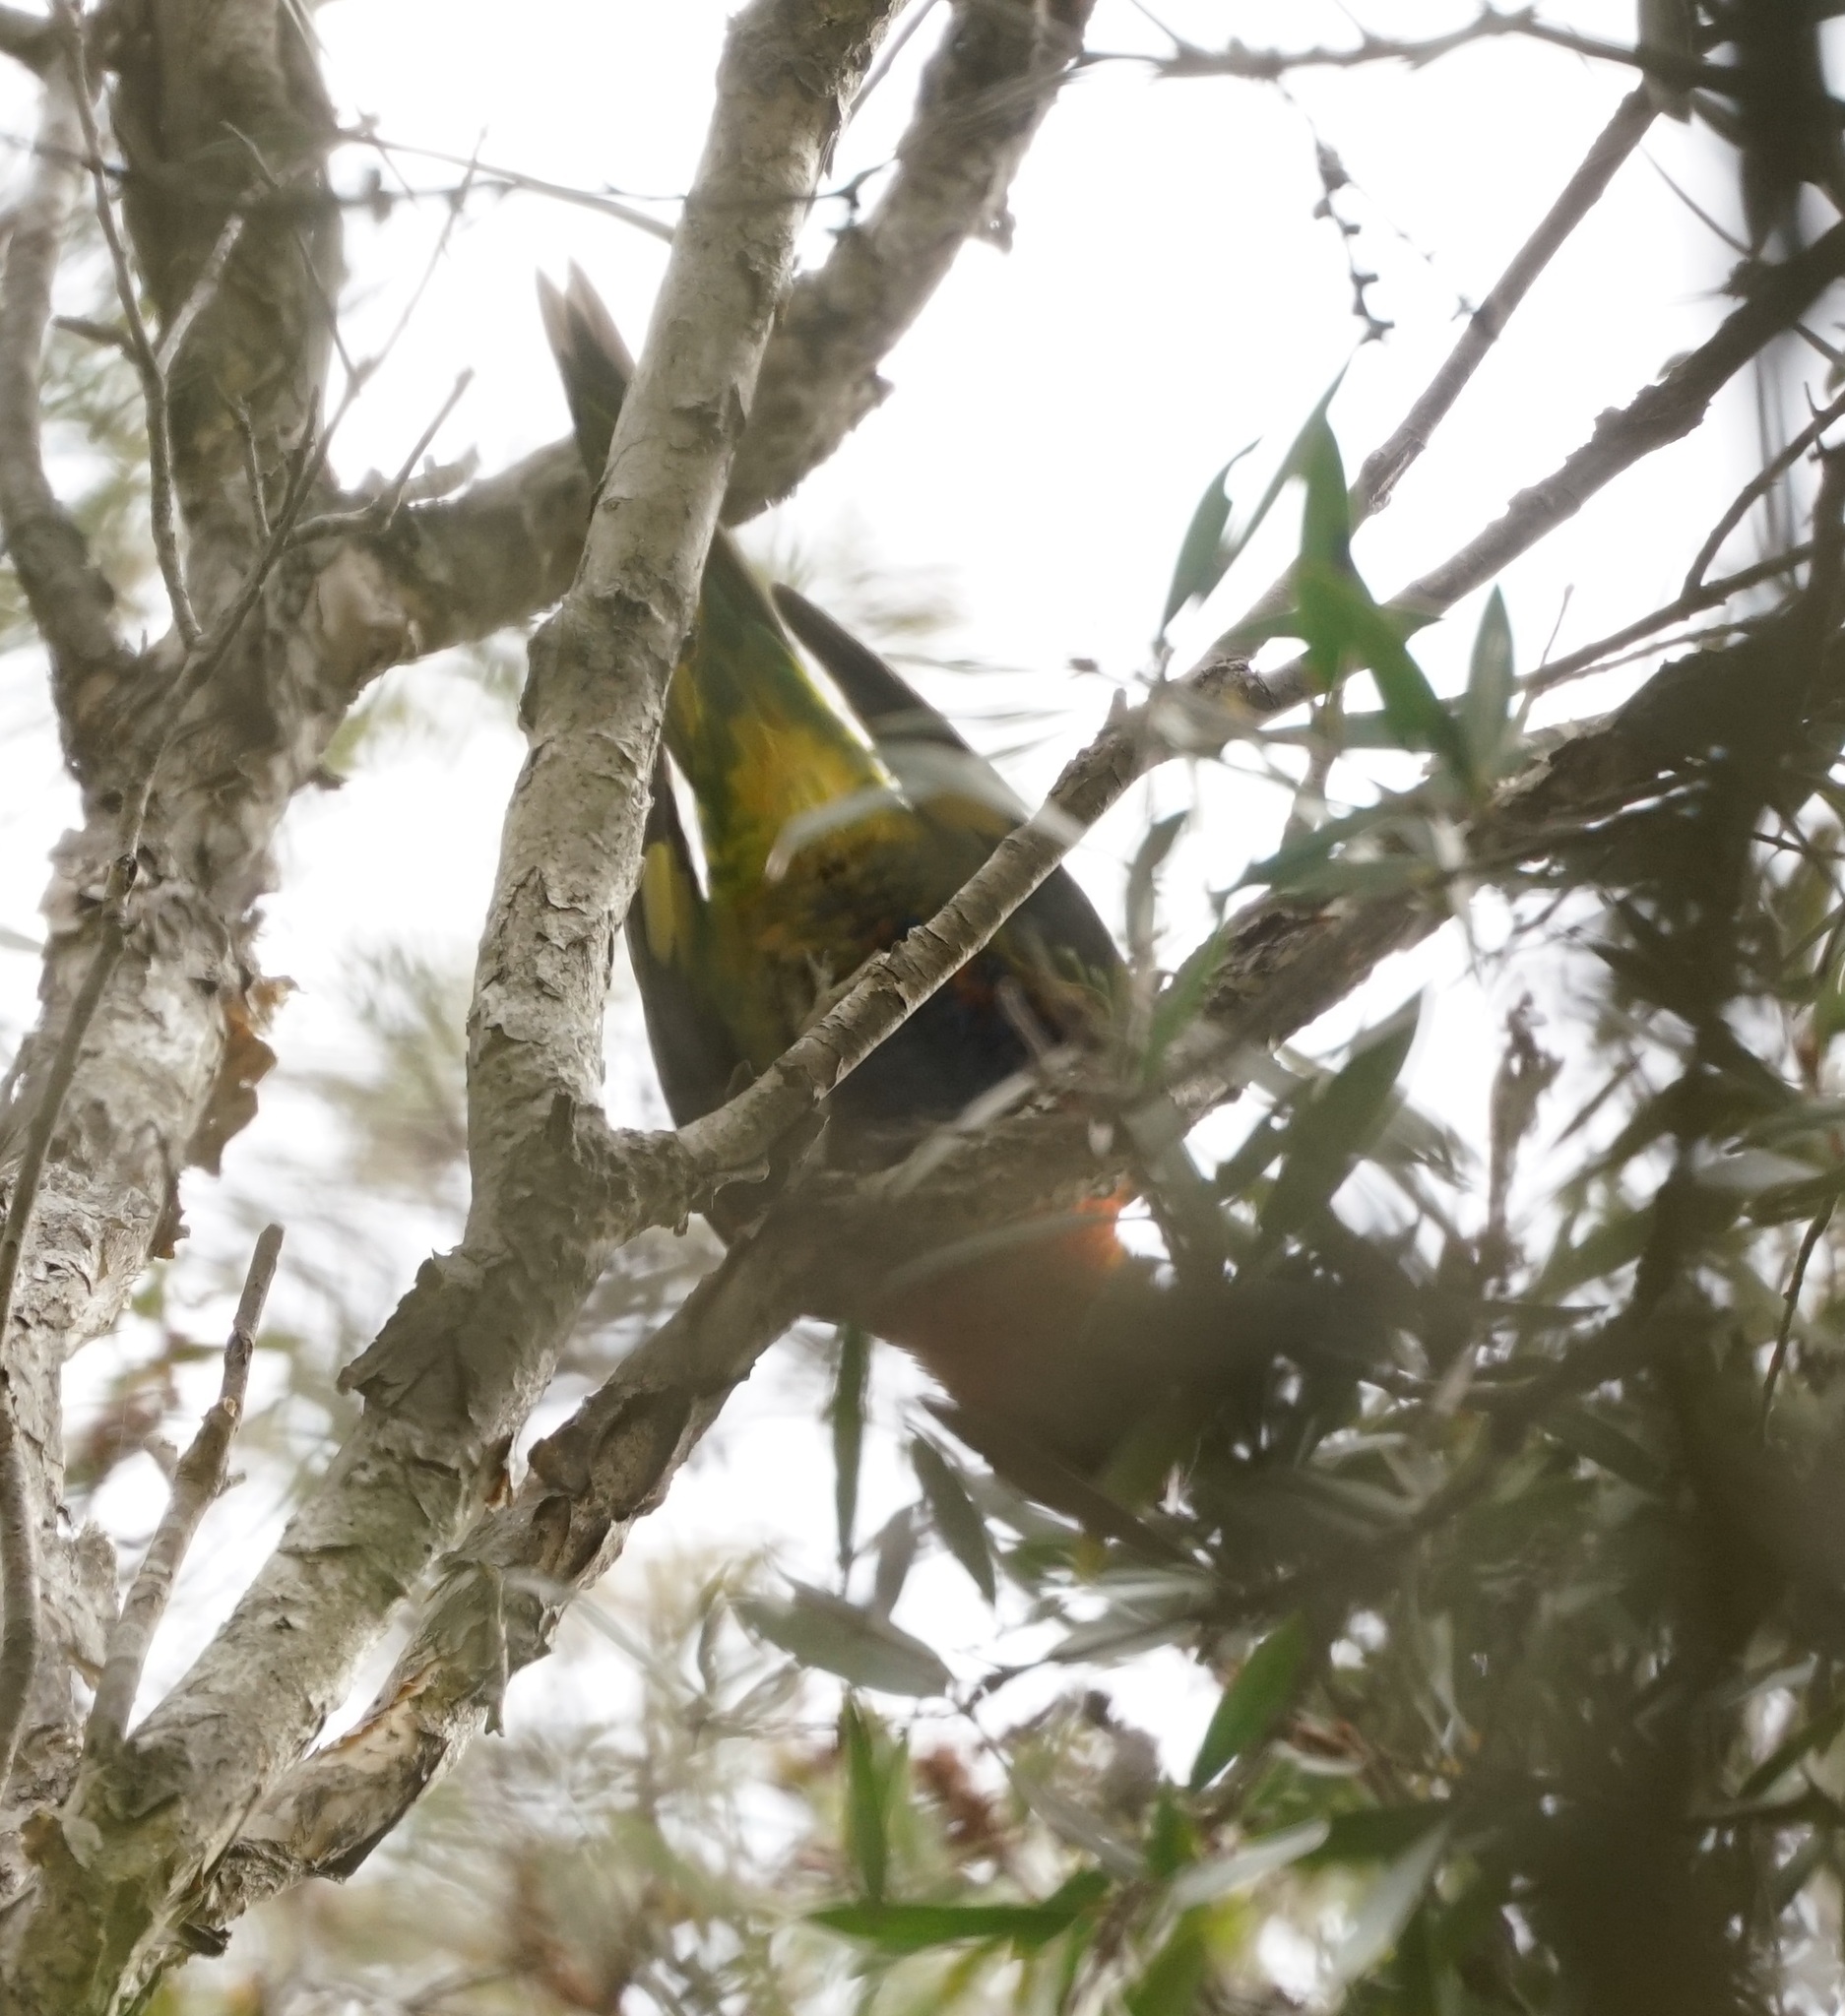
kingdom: Animalia
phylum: Chordata
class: Aves
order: Psittaciformes
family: Psittacidae
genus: Trichoglossus
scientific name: Trichoglossus haematodus
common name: Coconut lorikeet
